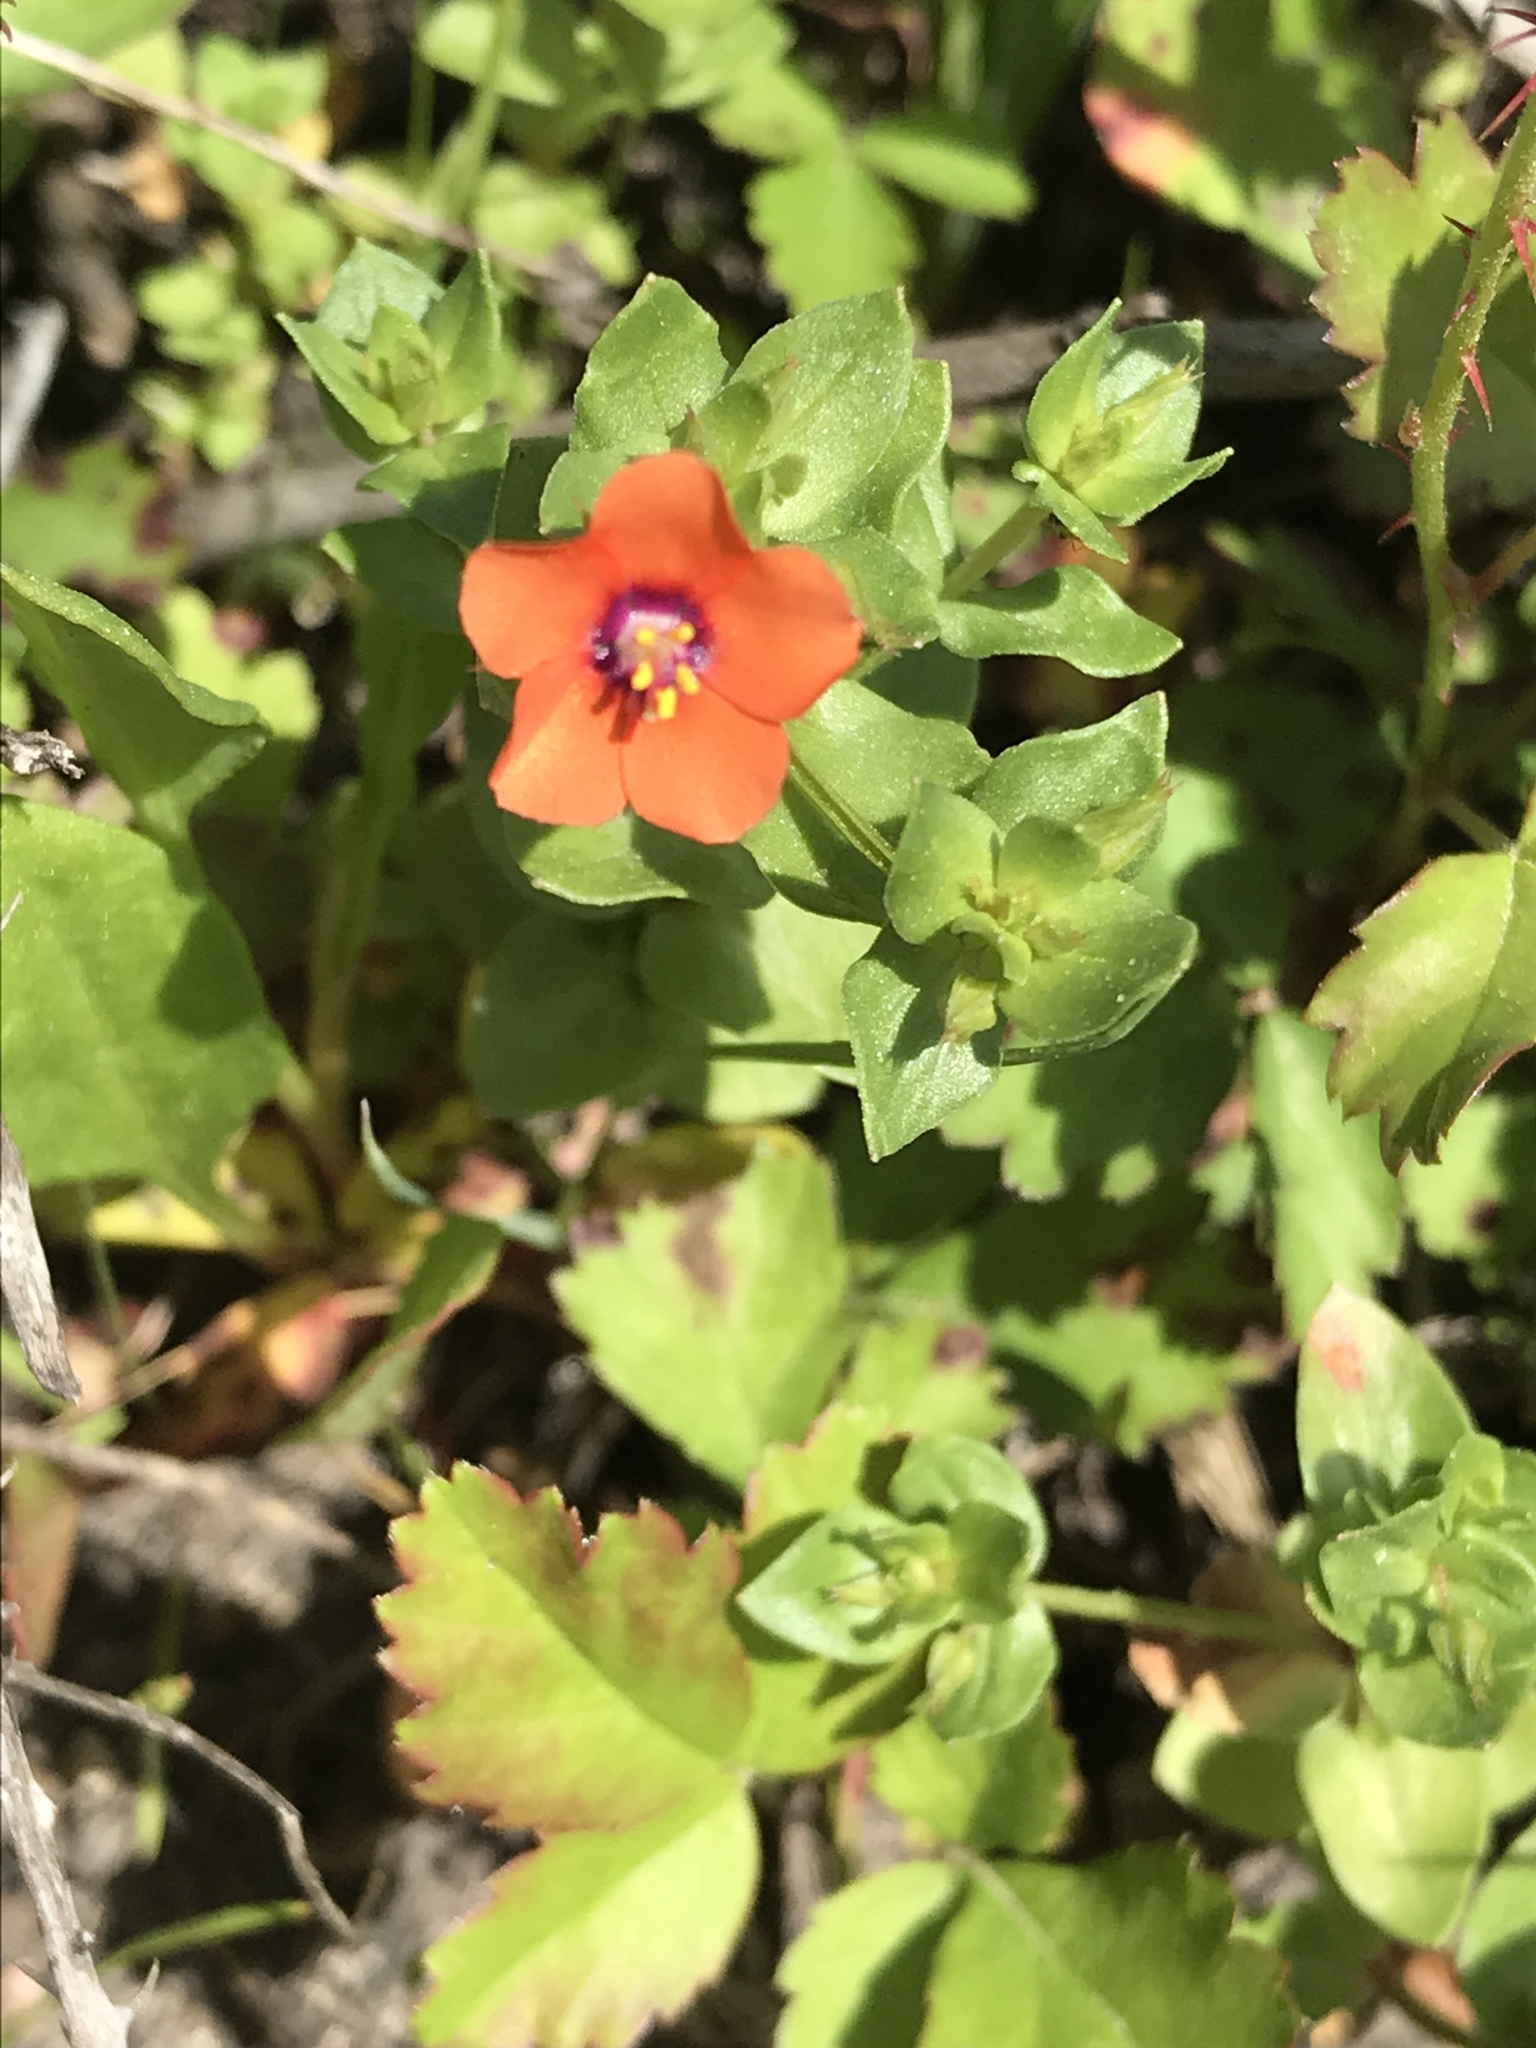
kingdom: Plantae
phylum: Tracheophyta
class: Magnoliopsida
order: Ericales
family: Primulaceae
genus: Lysimachia
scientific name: Lysimachia arvensis
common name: Scarlet pimpernel
